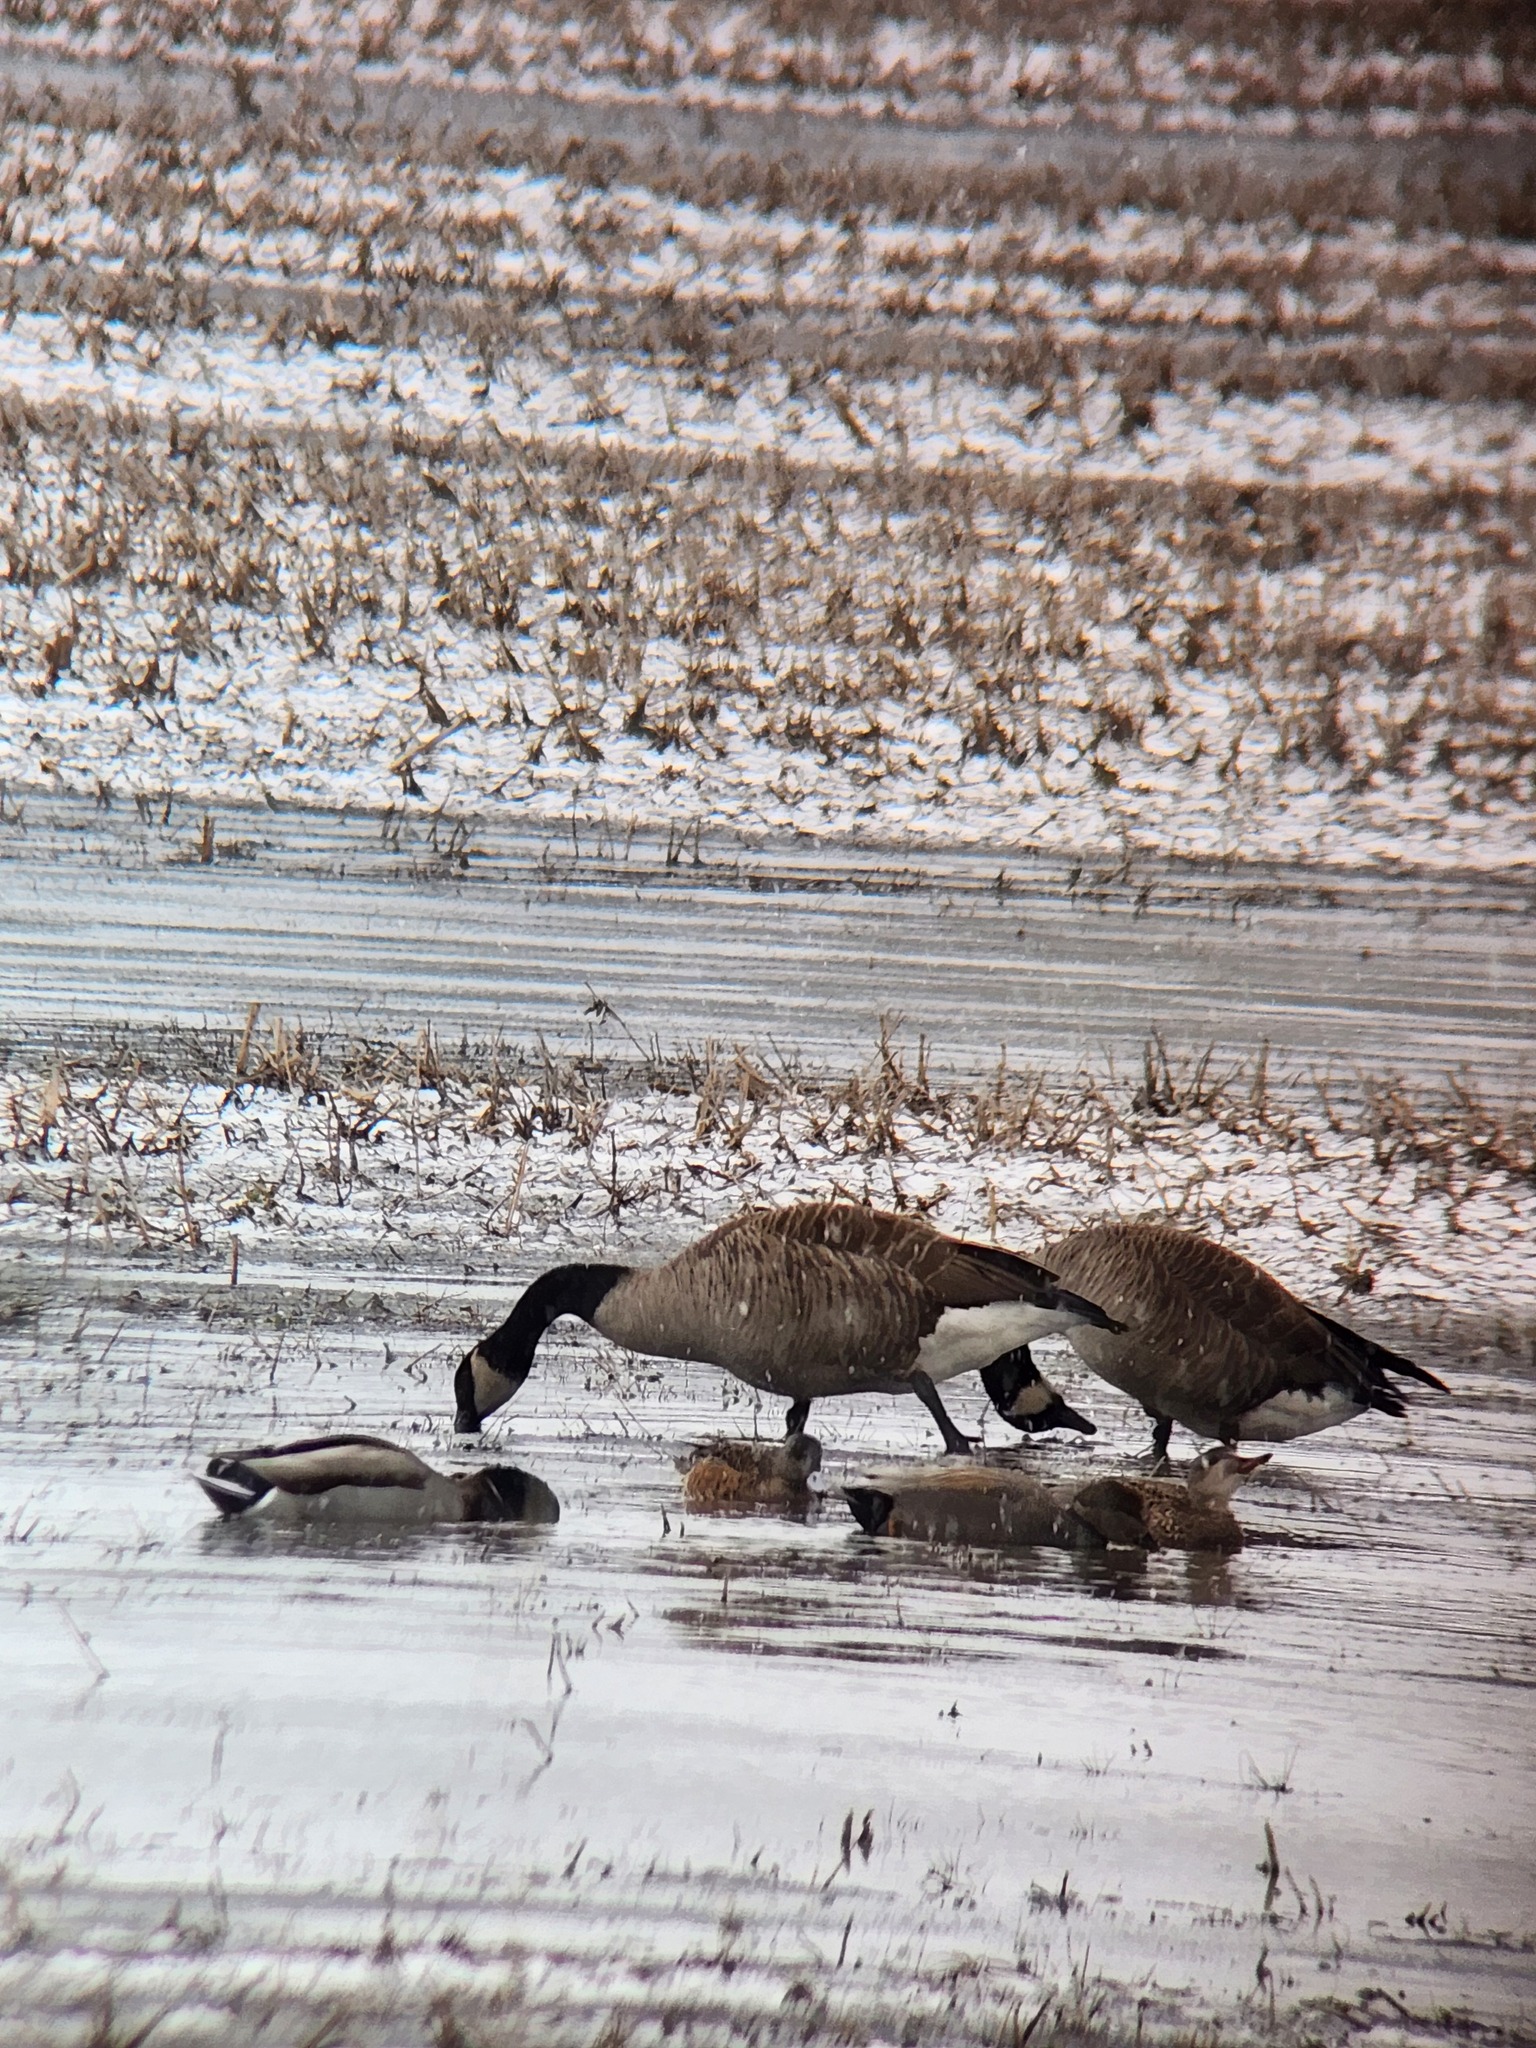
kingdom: Animalia
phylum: Chordata
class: Aves
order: Anseriformes
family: Anatidae
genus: Branta
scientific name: Branta canadensis
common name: Canada goose
